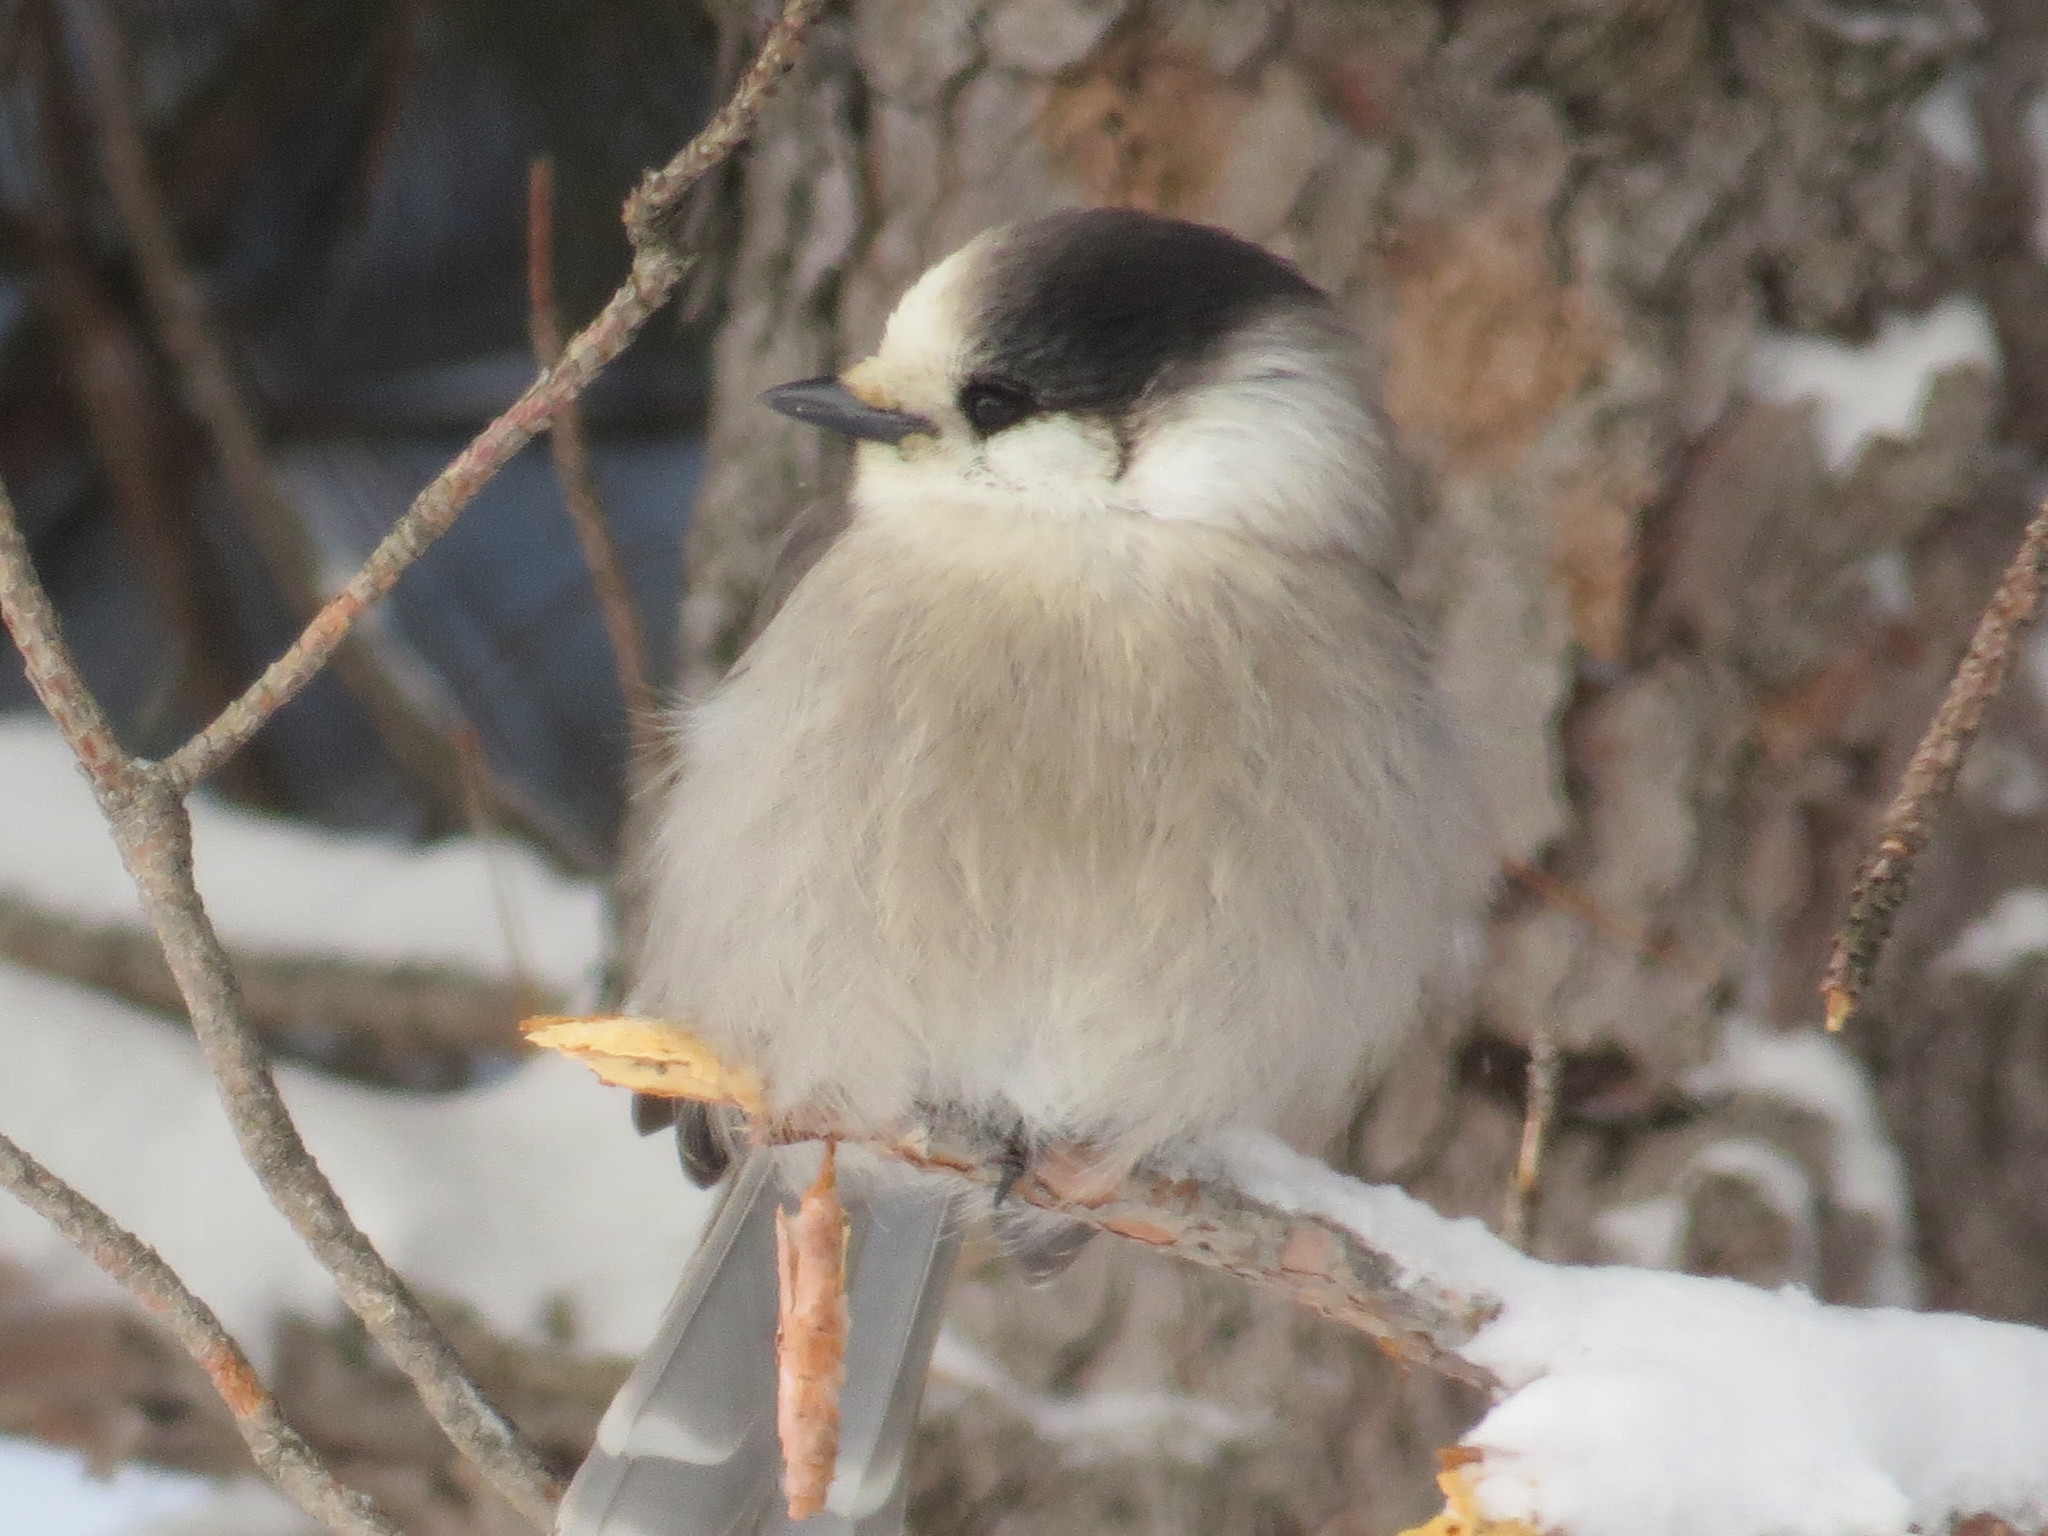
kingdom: Animalia
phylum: Chordata
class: Aves
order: Passeriformes
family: Corvidae
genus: Perisoreus
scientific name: Perisoreus canadensis
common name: Gray jay
